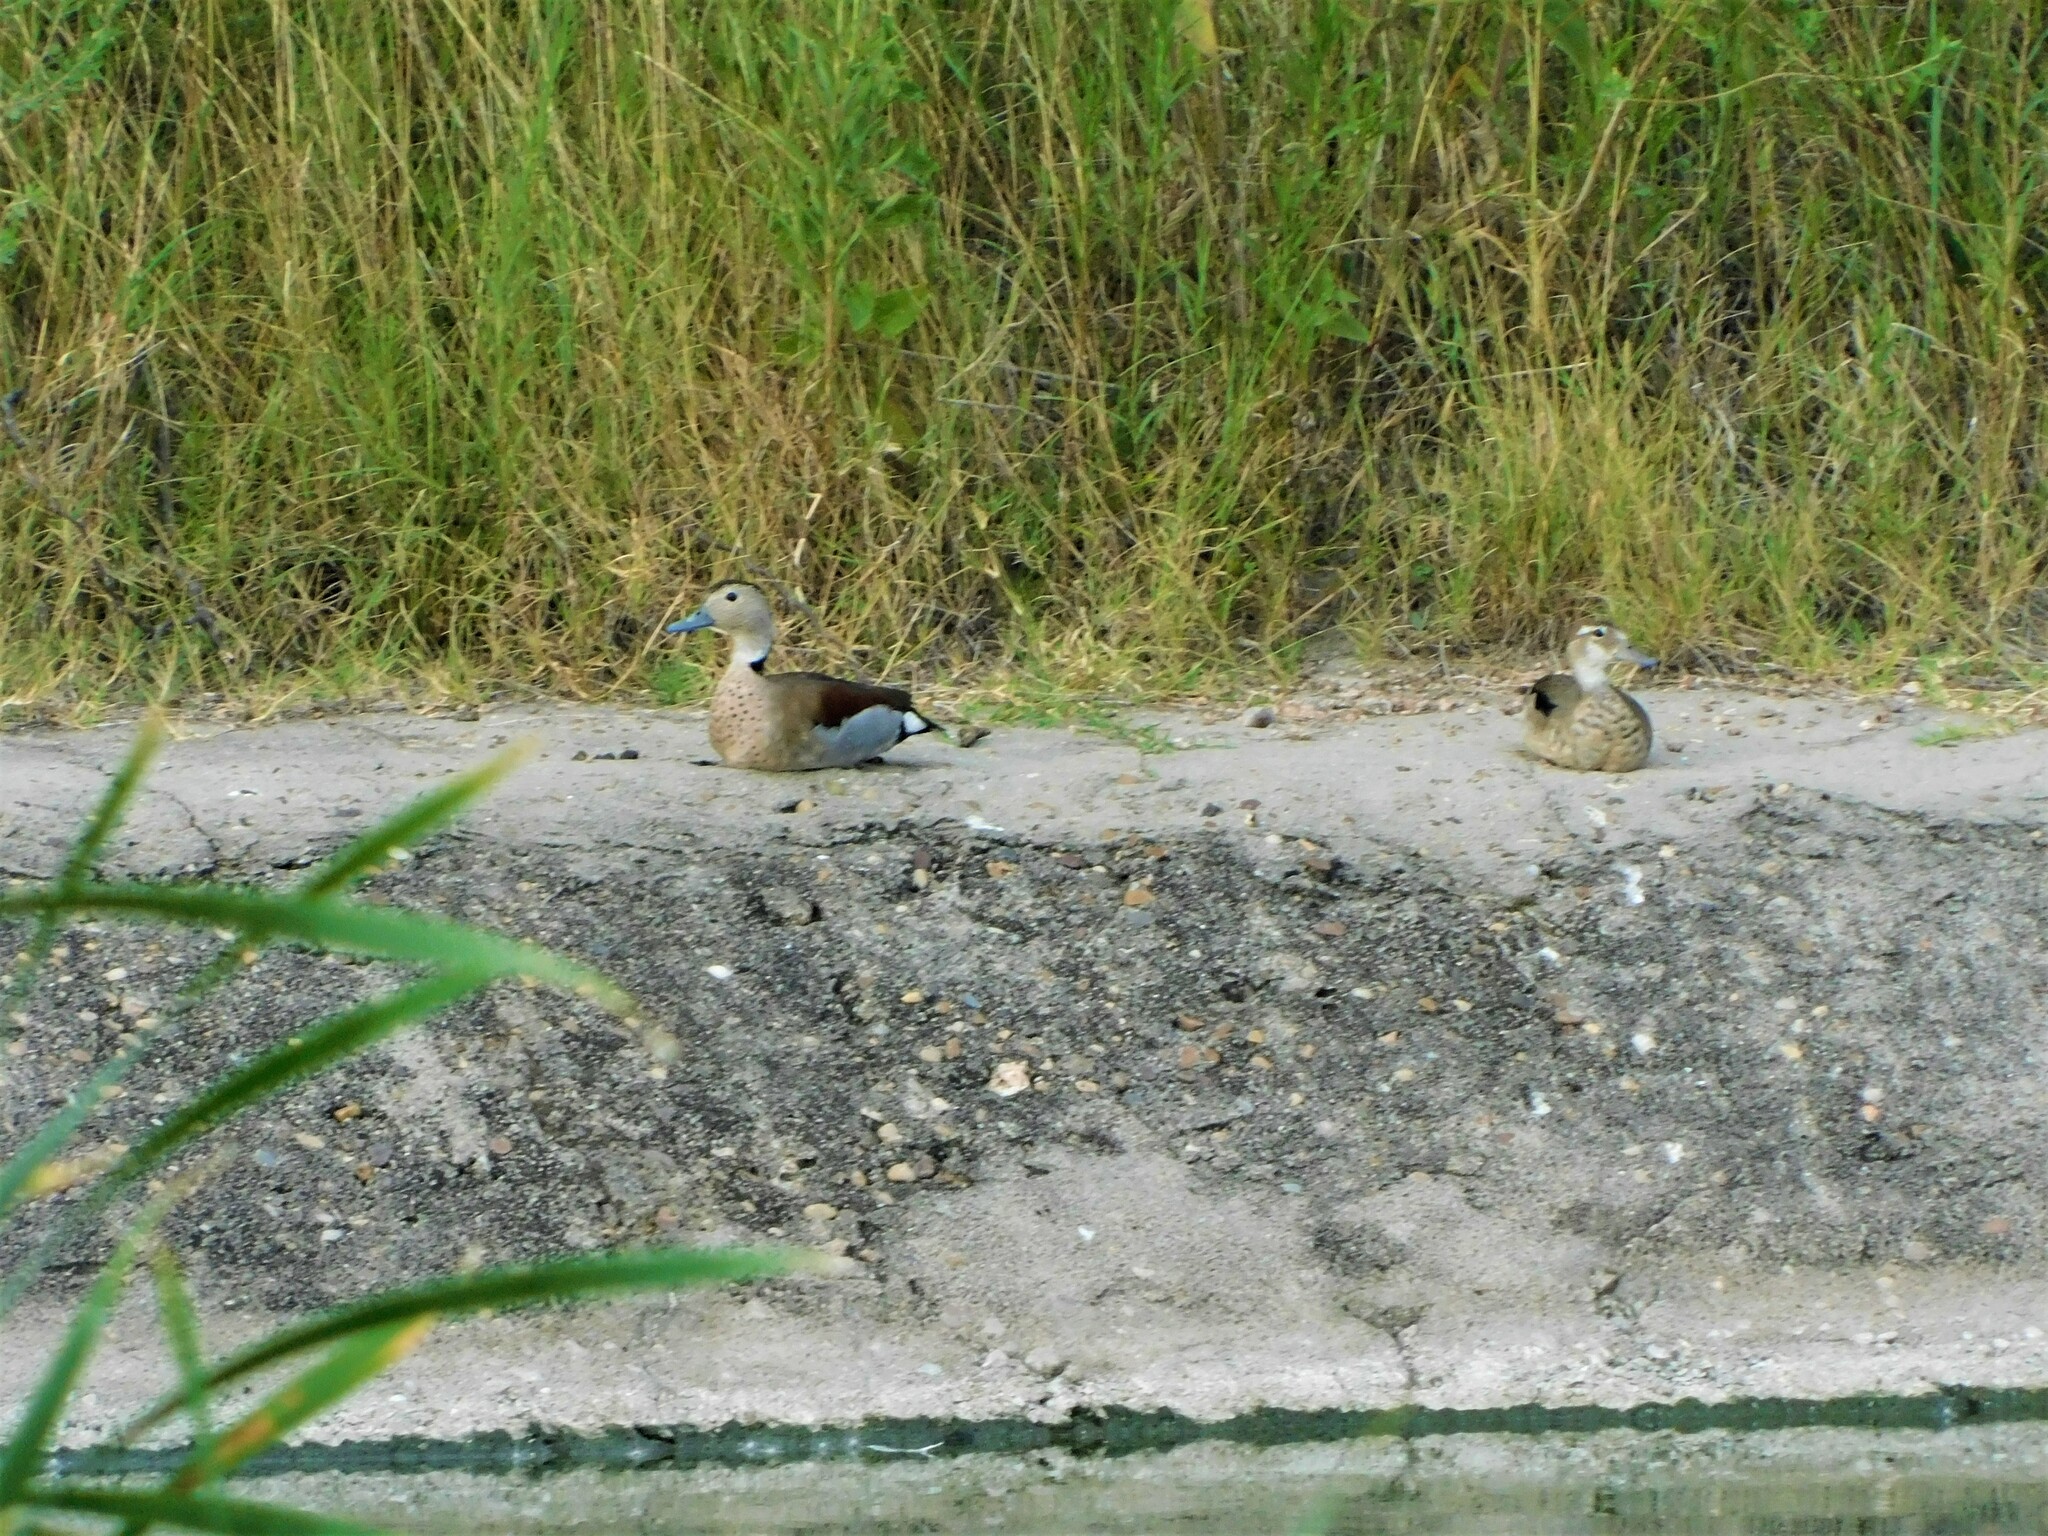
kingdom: Animalia
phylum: Chordata
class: Aves
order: Anseriformes
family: Anatidae
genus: Callonetta
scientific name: Callonetta leucophrys
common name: Ringed teal
